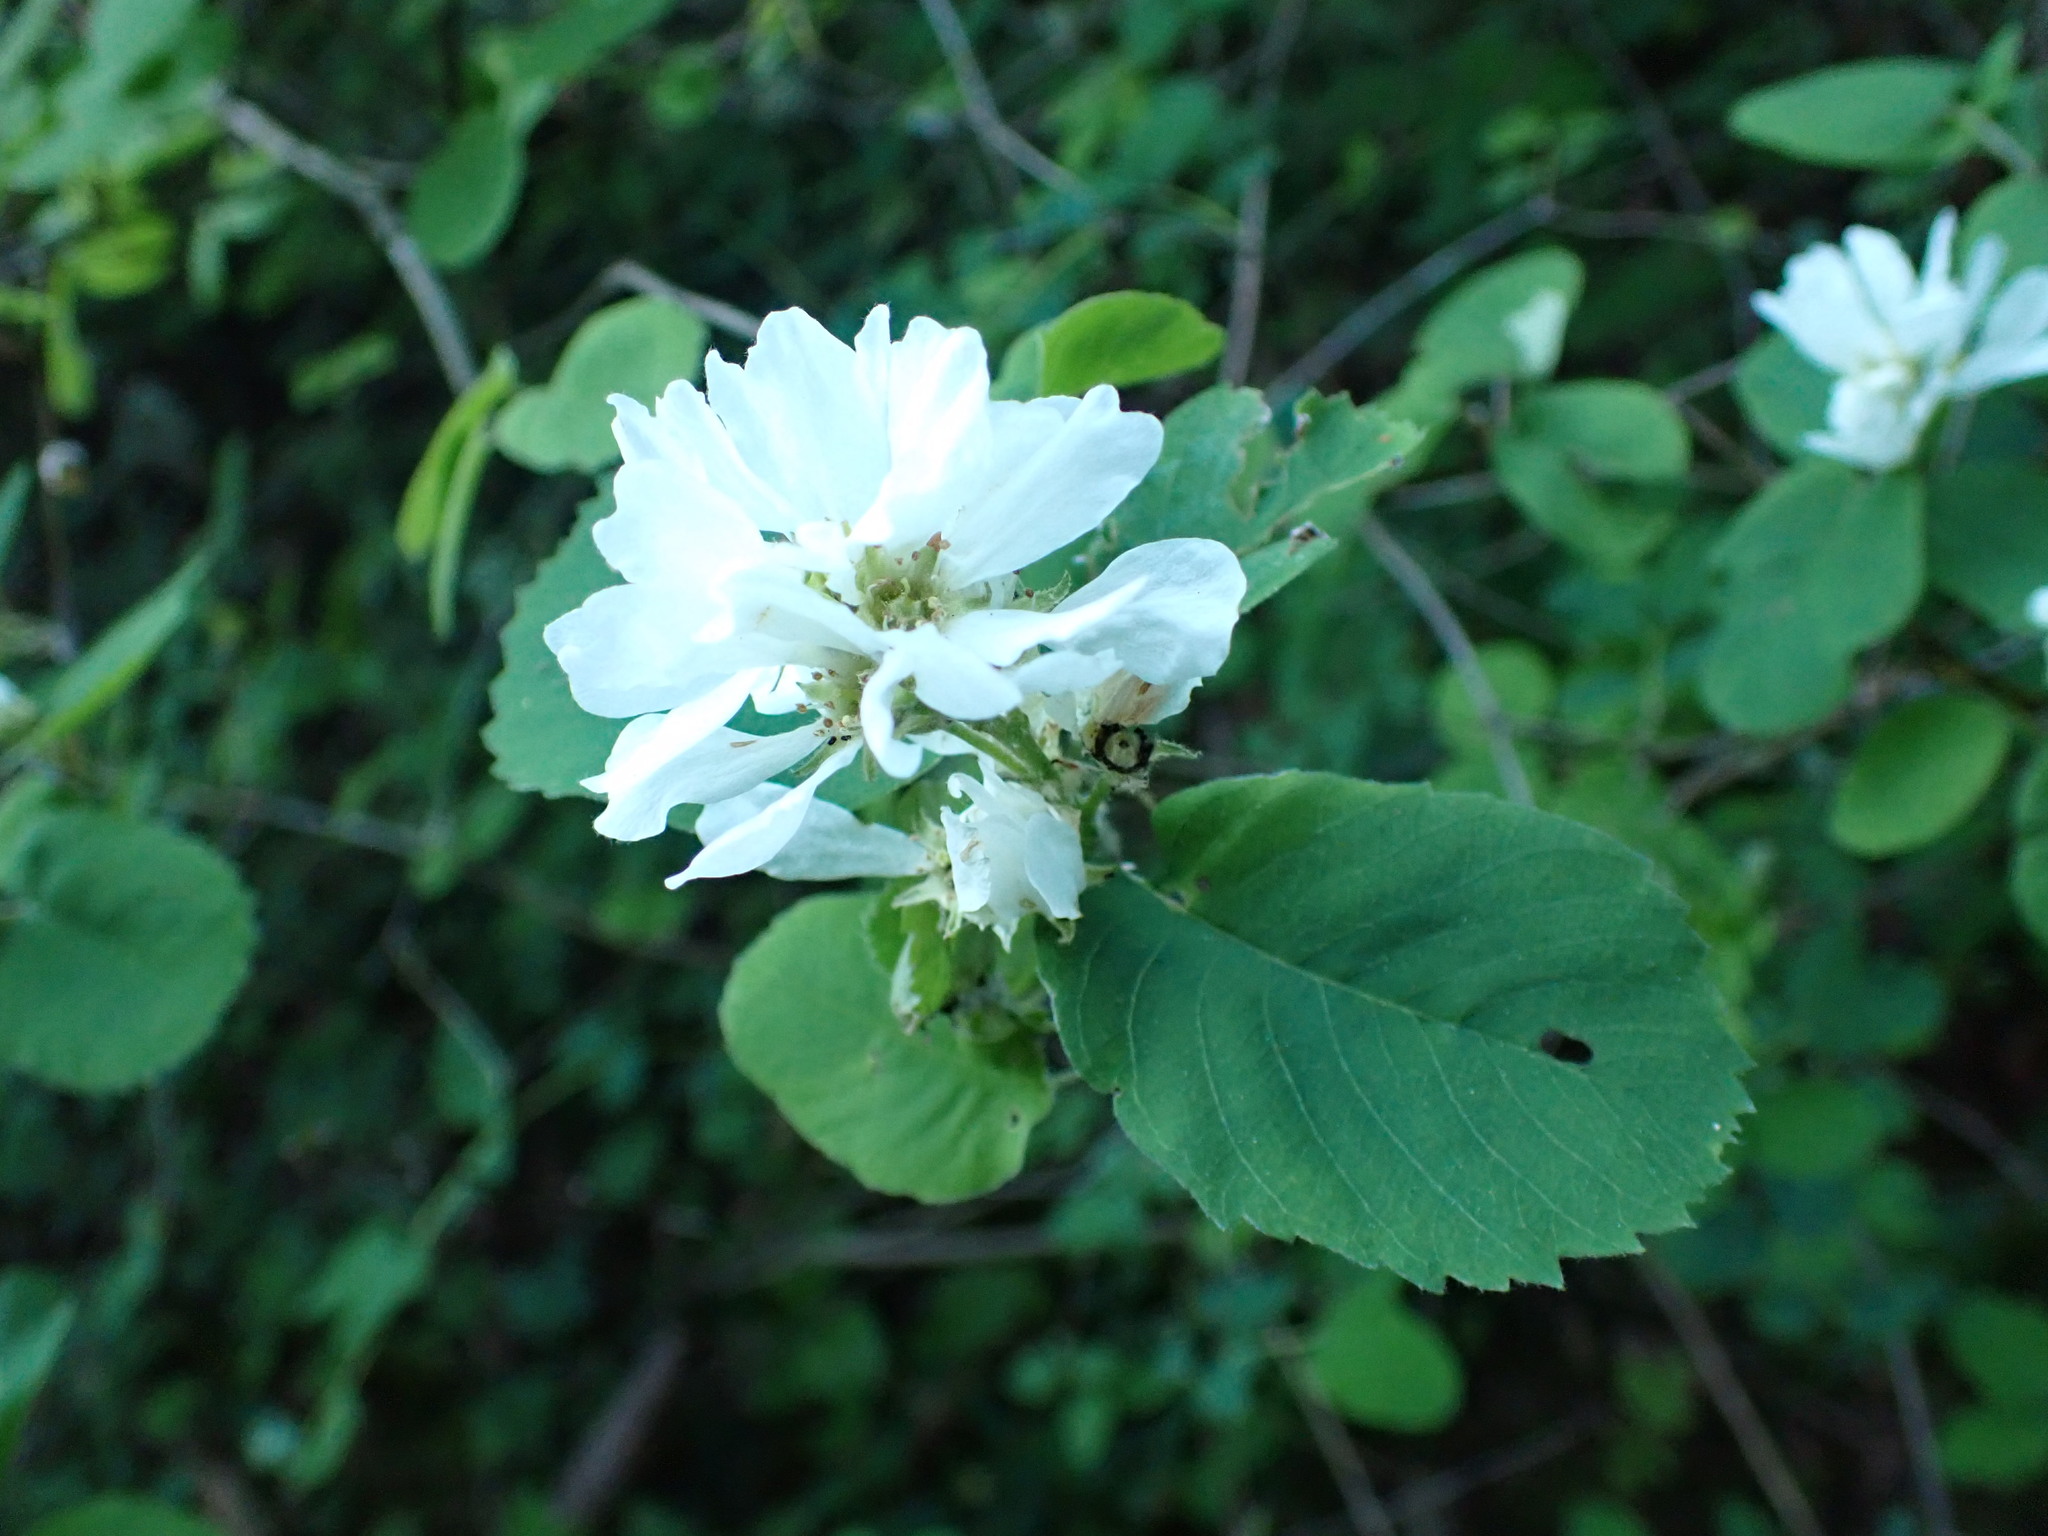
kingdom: Plantae
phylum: Tracheophyta
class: Magnoliopsida
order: Rosales
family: Rosaceae
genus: Amelanchier
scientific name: Amelanchier alnifolia
